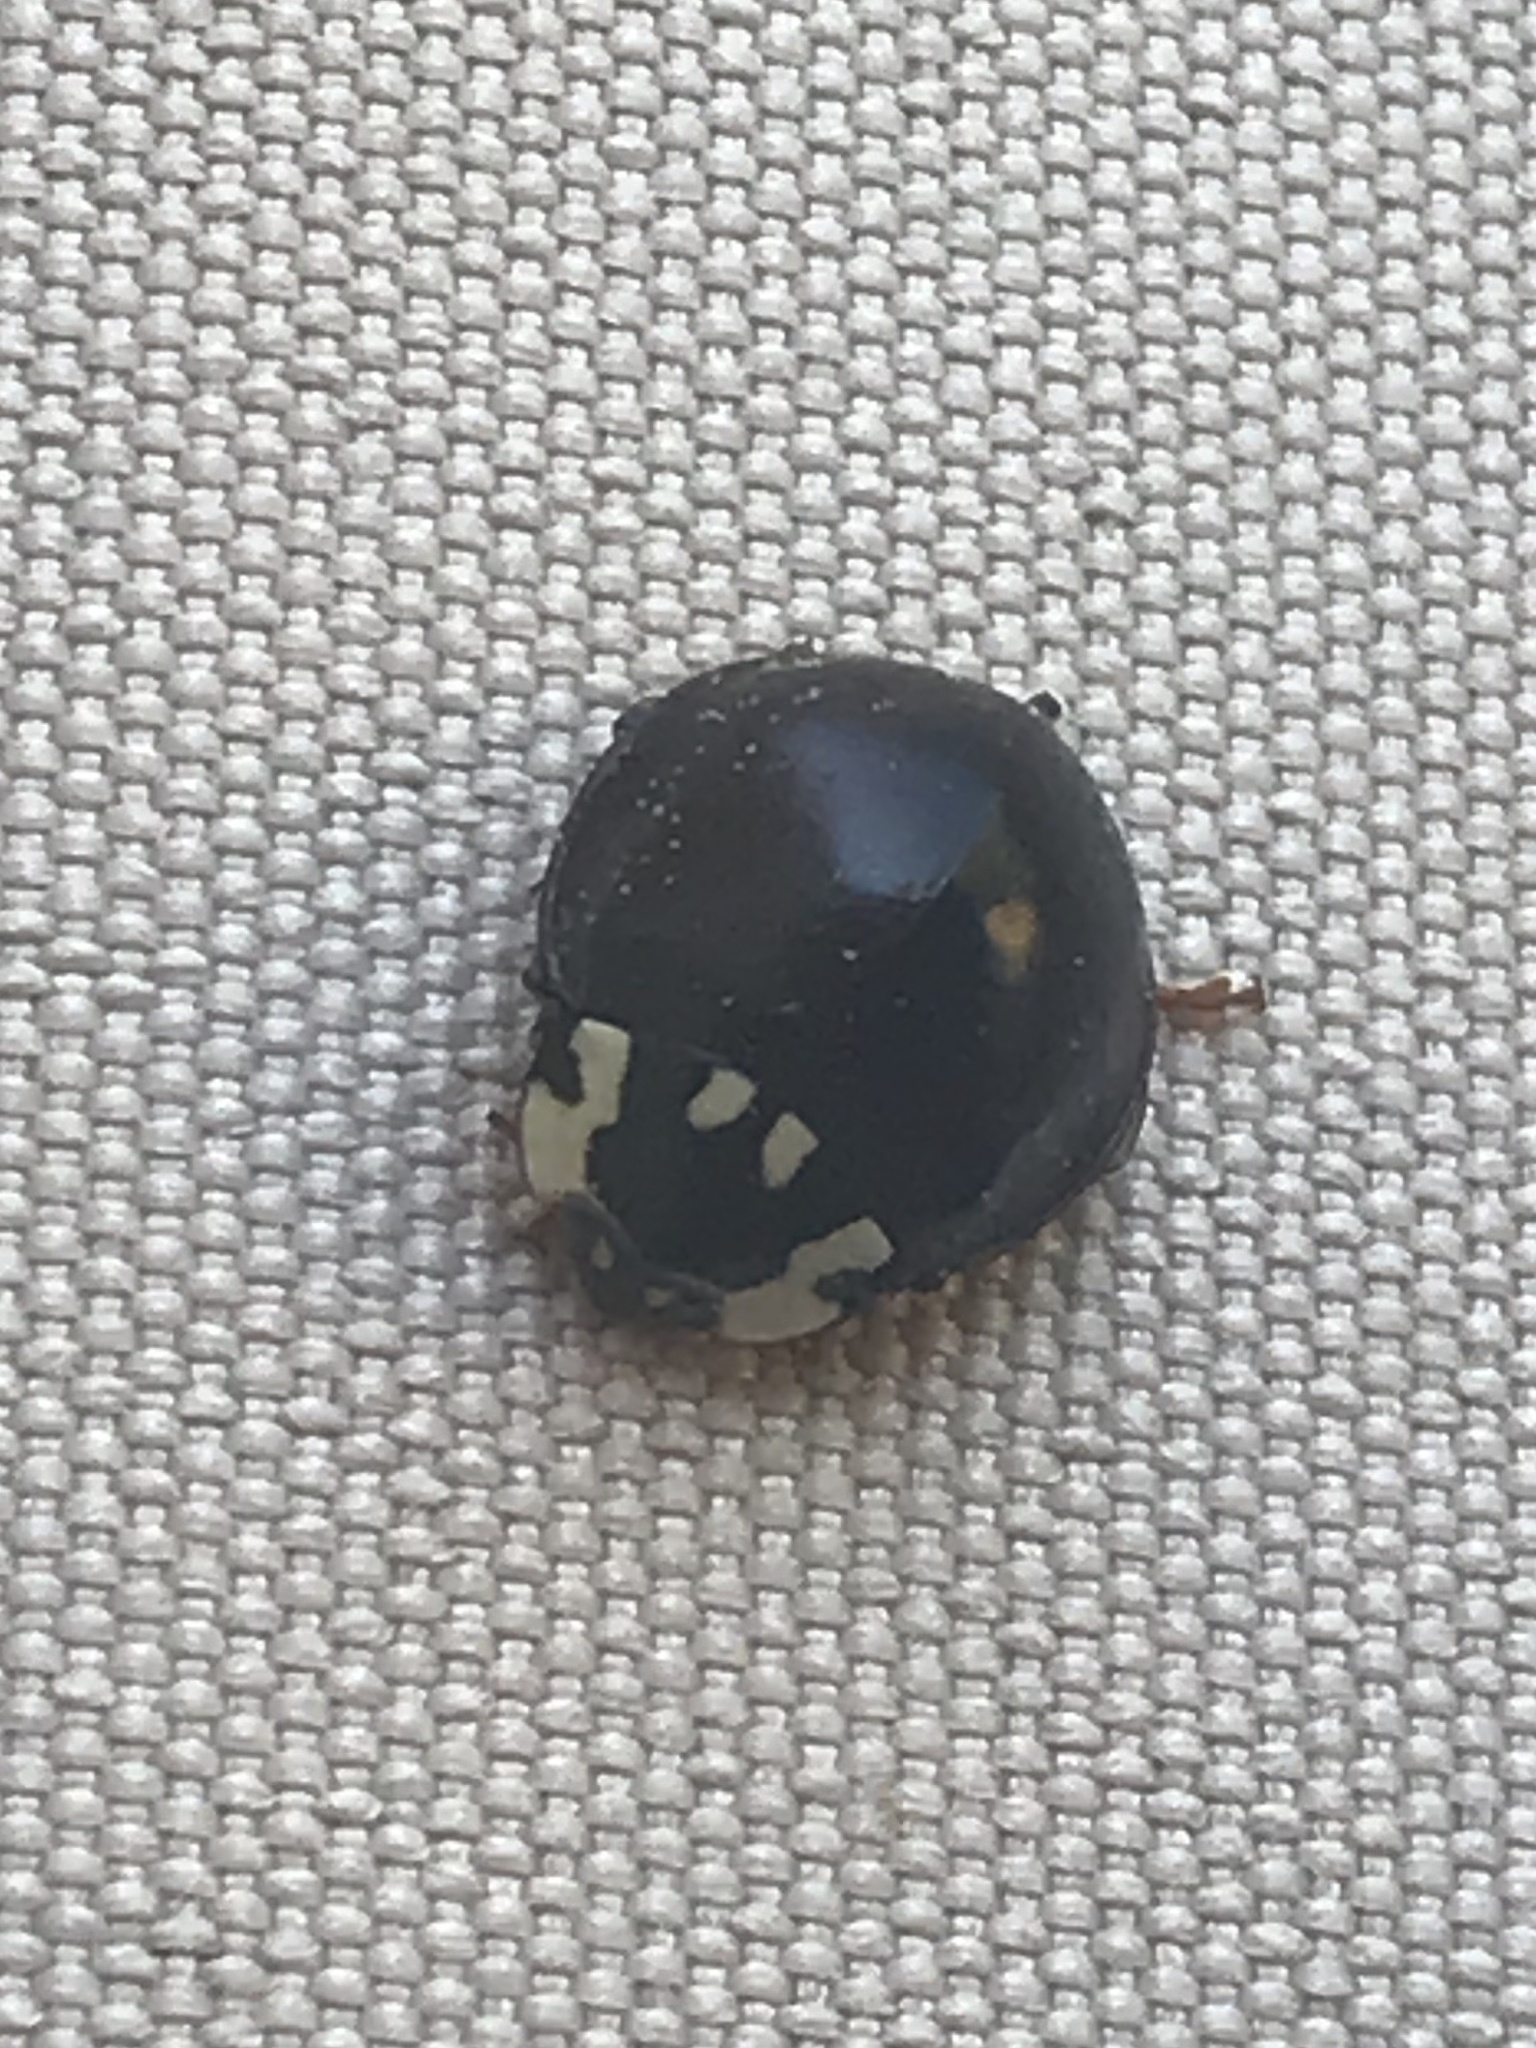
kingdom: Animalia
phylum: Arthropoda
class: Insecta
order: Coleoptera
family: Coccinellidae
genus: Anatis
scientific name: Anatis labiculata
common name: Fifteen-spotted lady beetle
